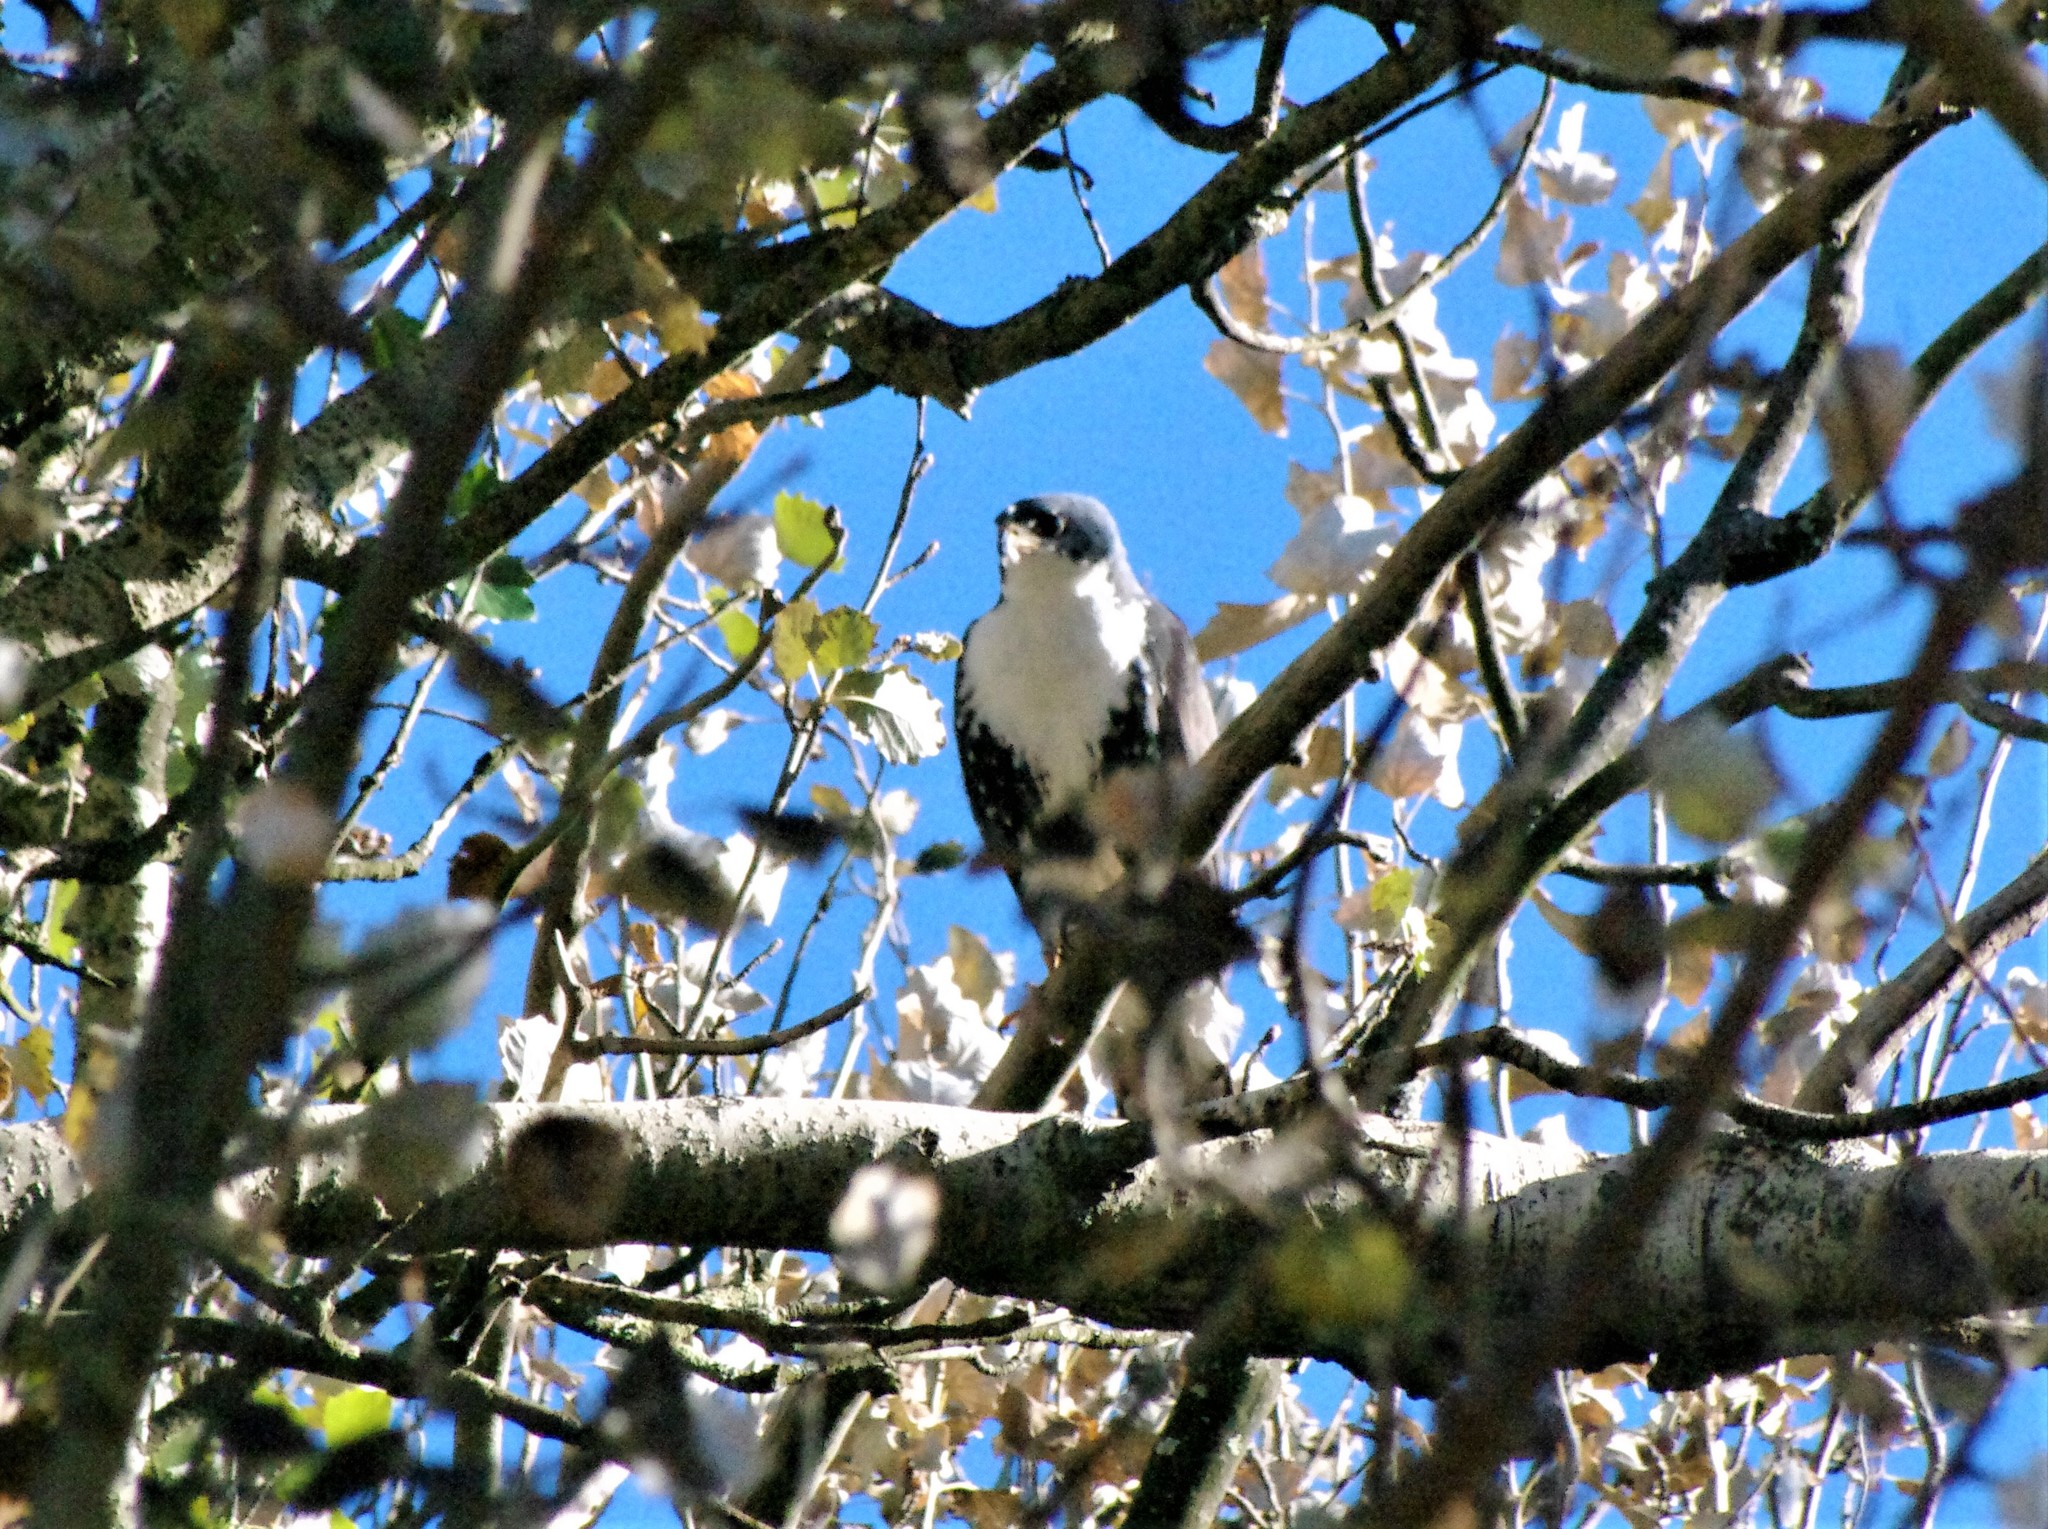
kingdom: Animalia
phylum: Chordata
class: Aves
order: Accipitriformes
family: Accipitridae
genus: Accipiter
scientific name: Accipiter melanoleucus
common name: Black sparrowhawk
